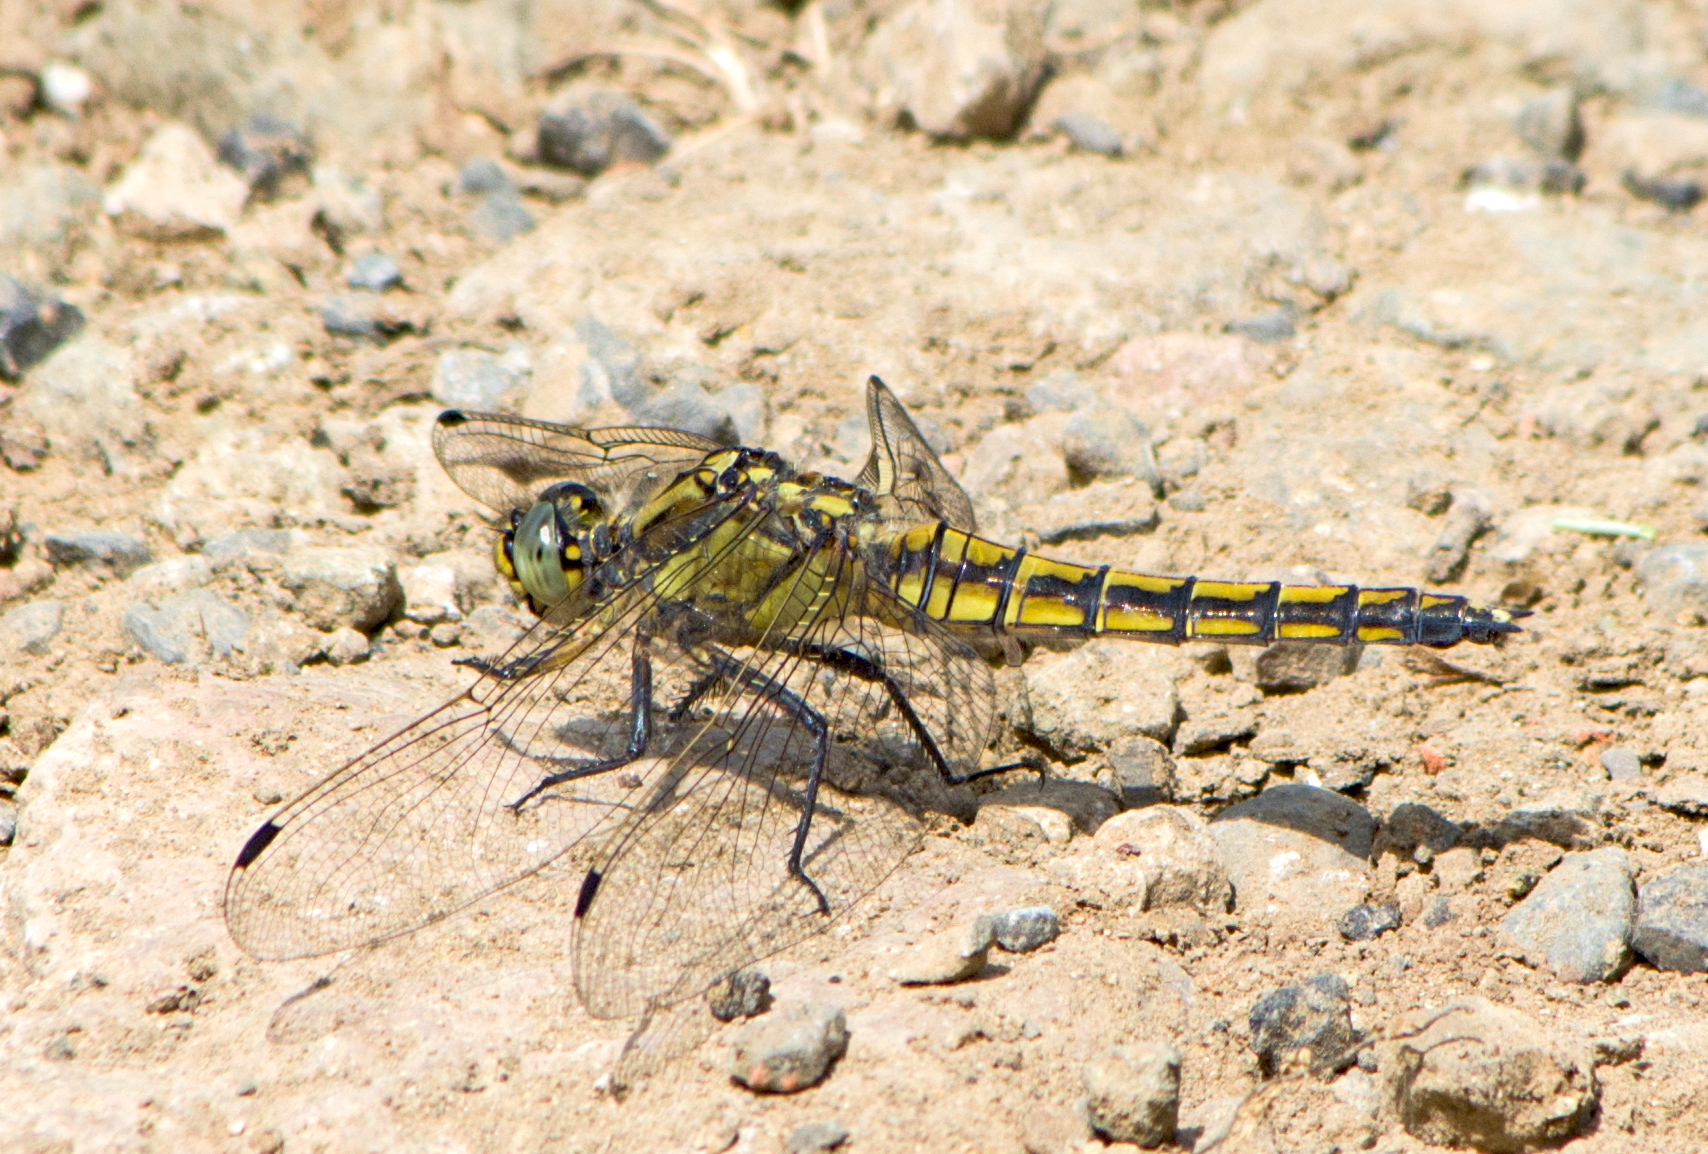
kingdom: Animalia
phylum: Arthropoda
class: Insecta
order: Odonata
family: Libellulidae
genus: Orthetrum
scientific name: Orthetrum cancellatum
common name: Black-tailed skimmer
